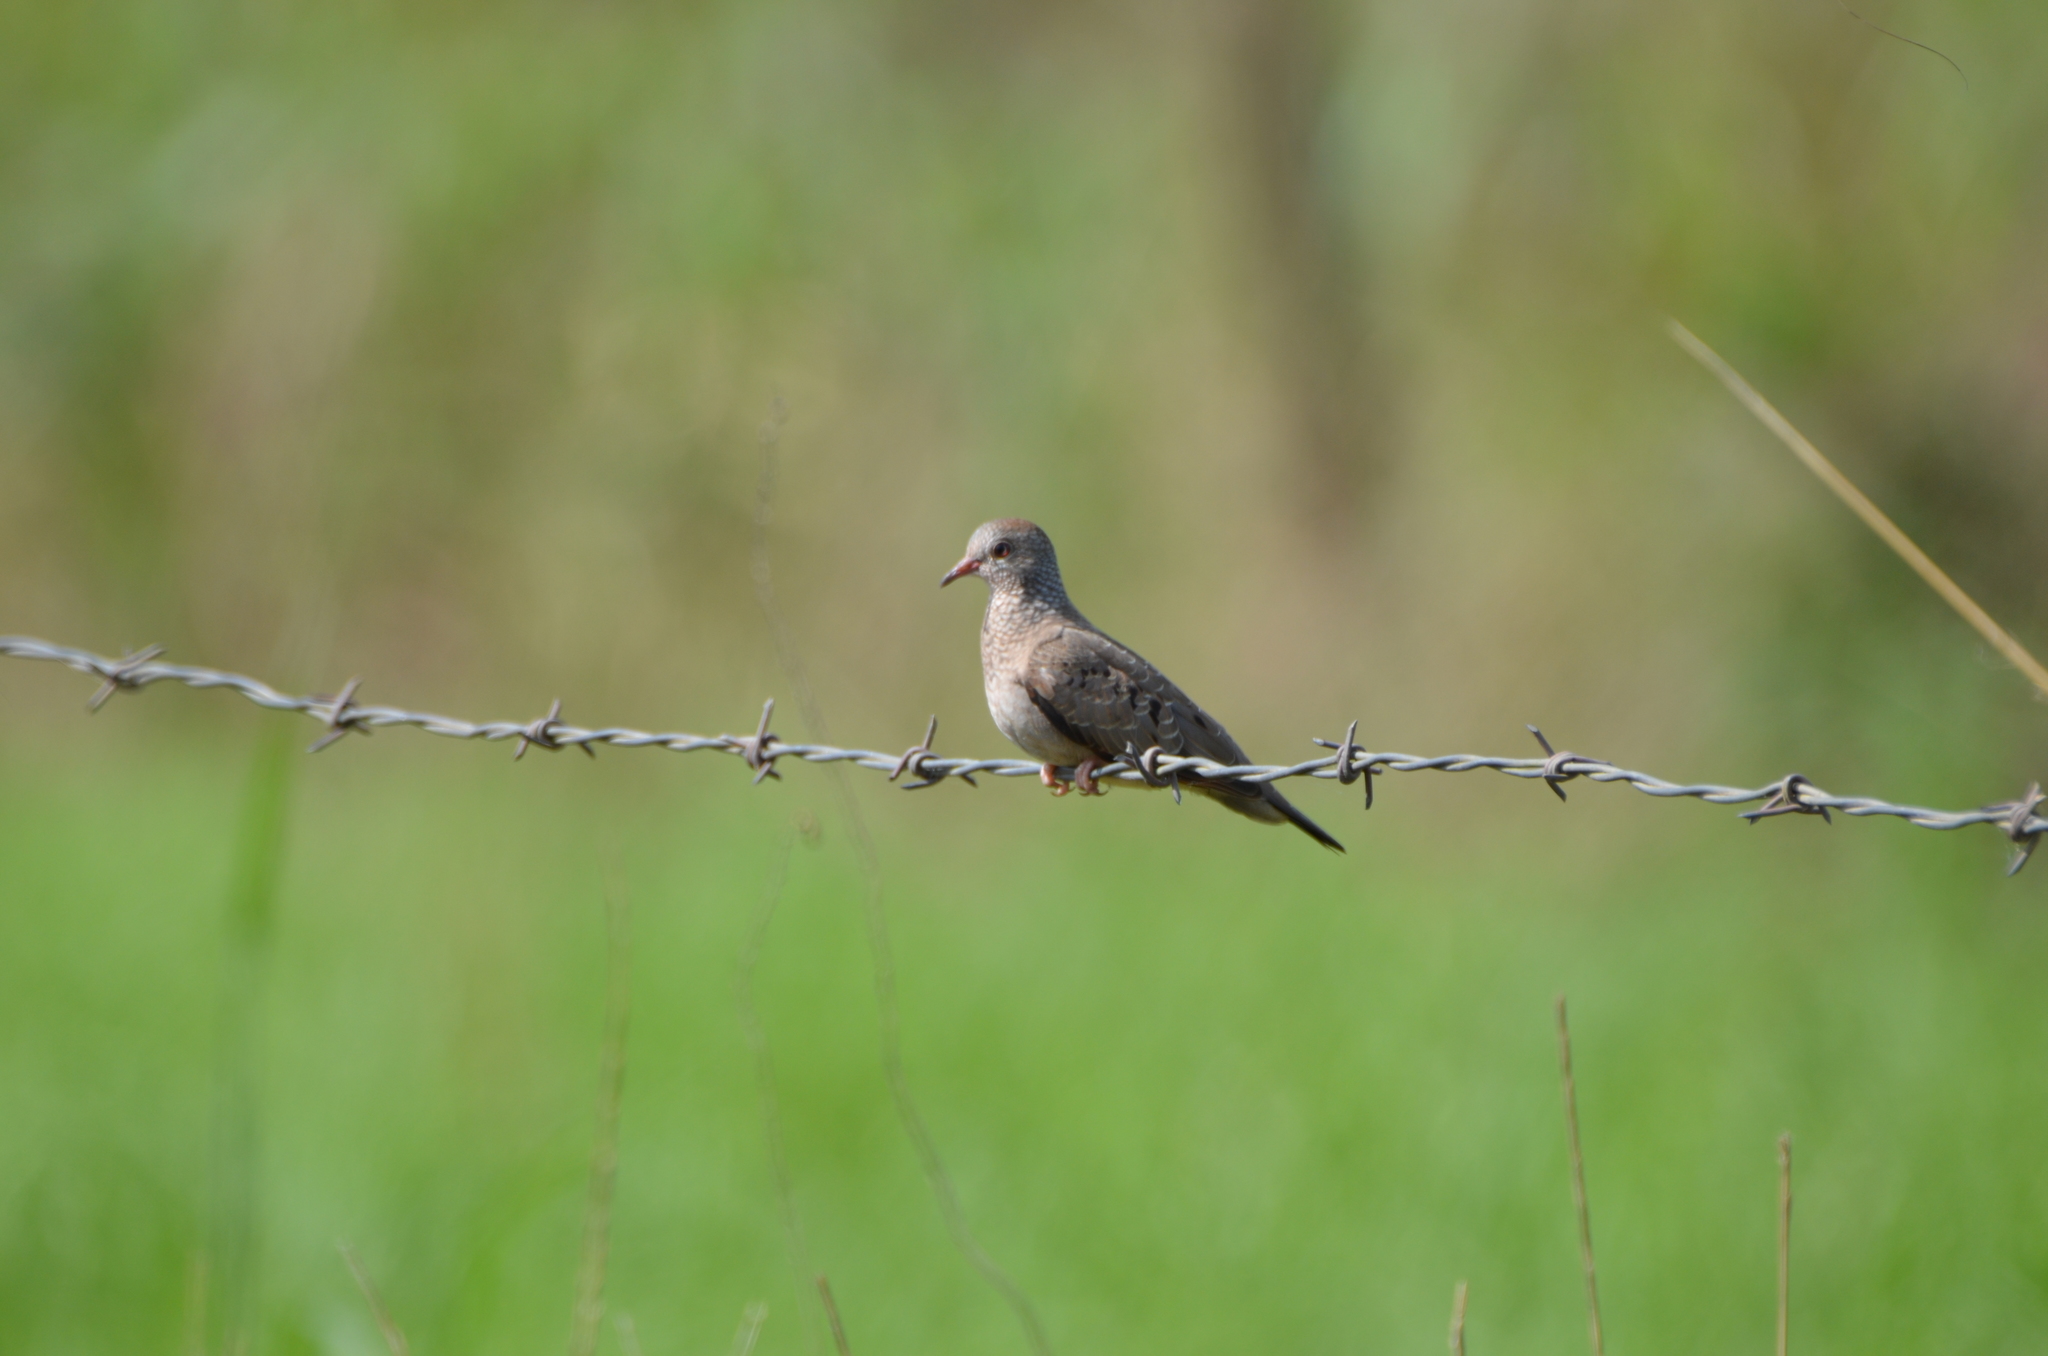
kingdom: Animalia
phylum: Chordata
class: Aves
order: Columbiformes
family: Columbidae
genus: Columbina
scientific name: Columbina passerina
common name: Common ground-dove
